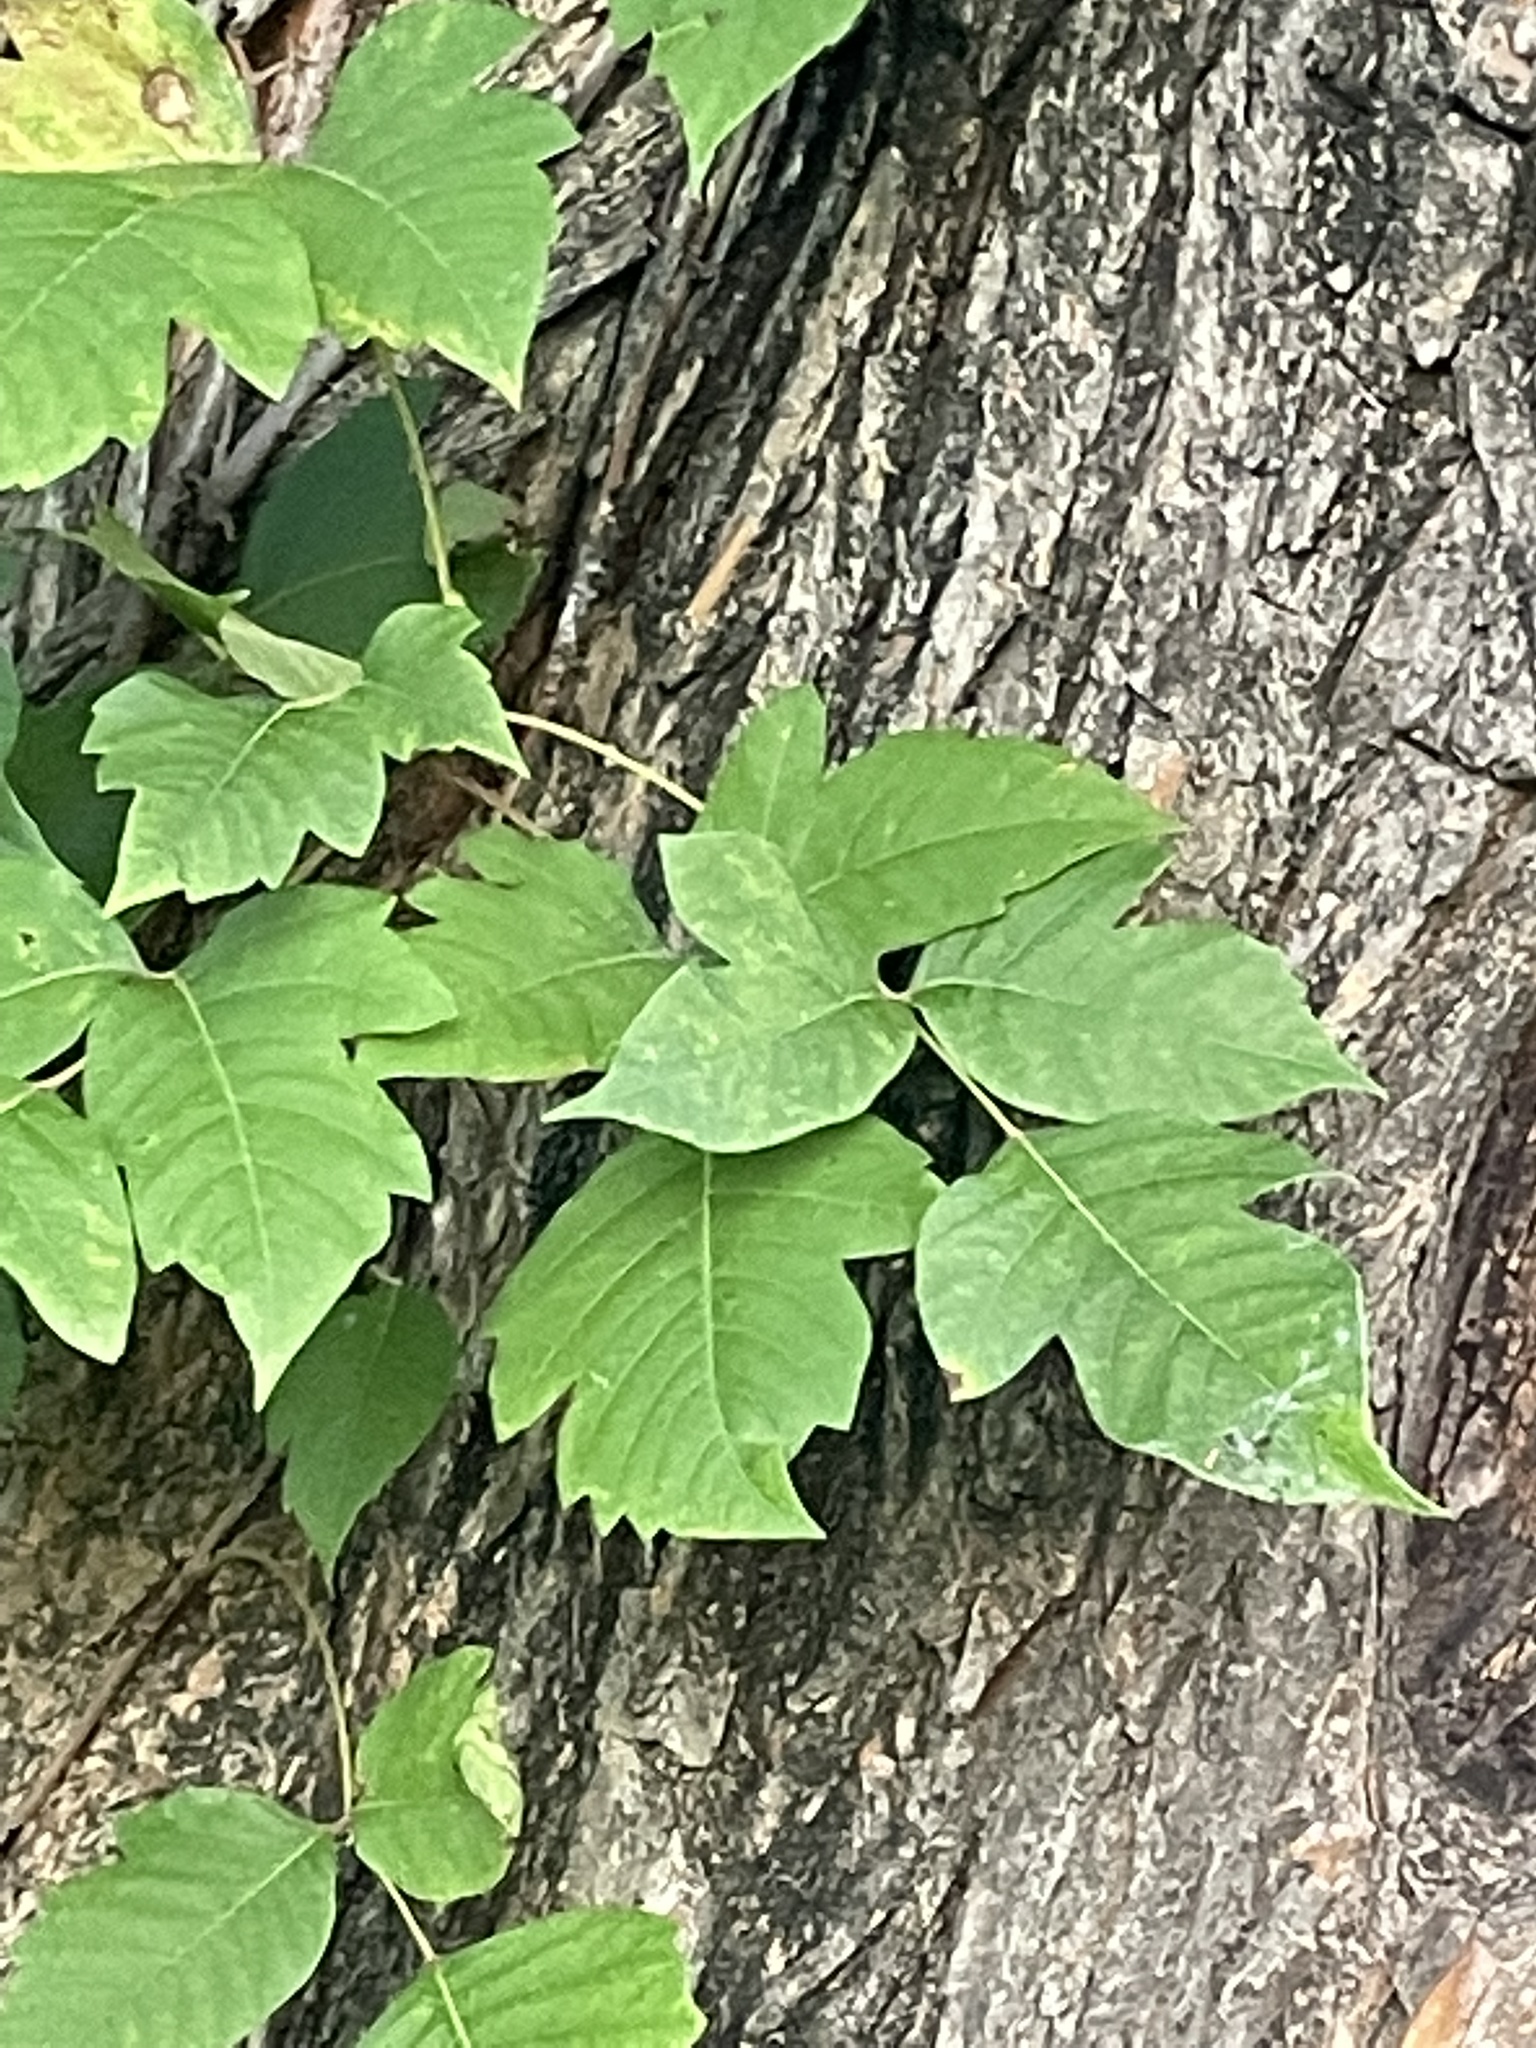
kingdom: Plantae
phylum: Tracheophyta
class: Magnoliopsida
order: Sapindales
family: Anacardiaceae
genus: Toxicodendron
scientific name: Toxicodendron radicans
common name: Poison ivy
